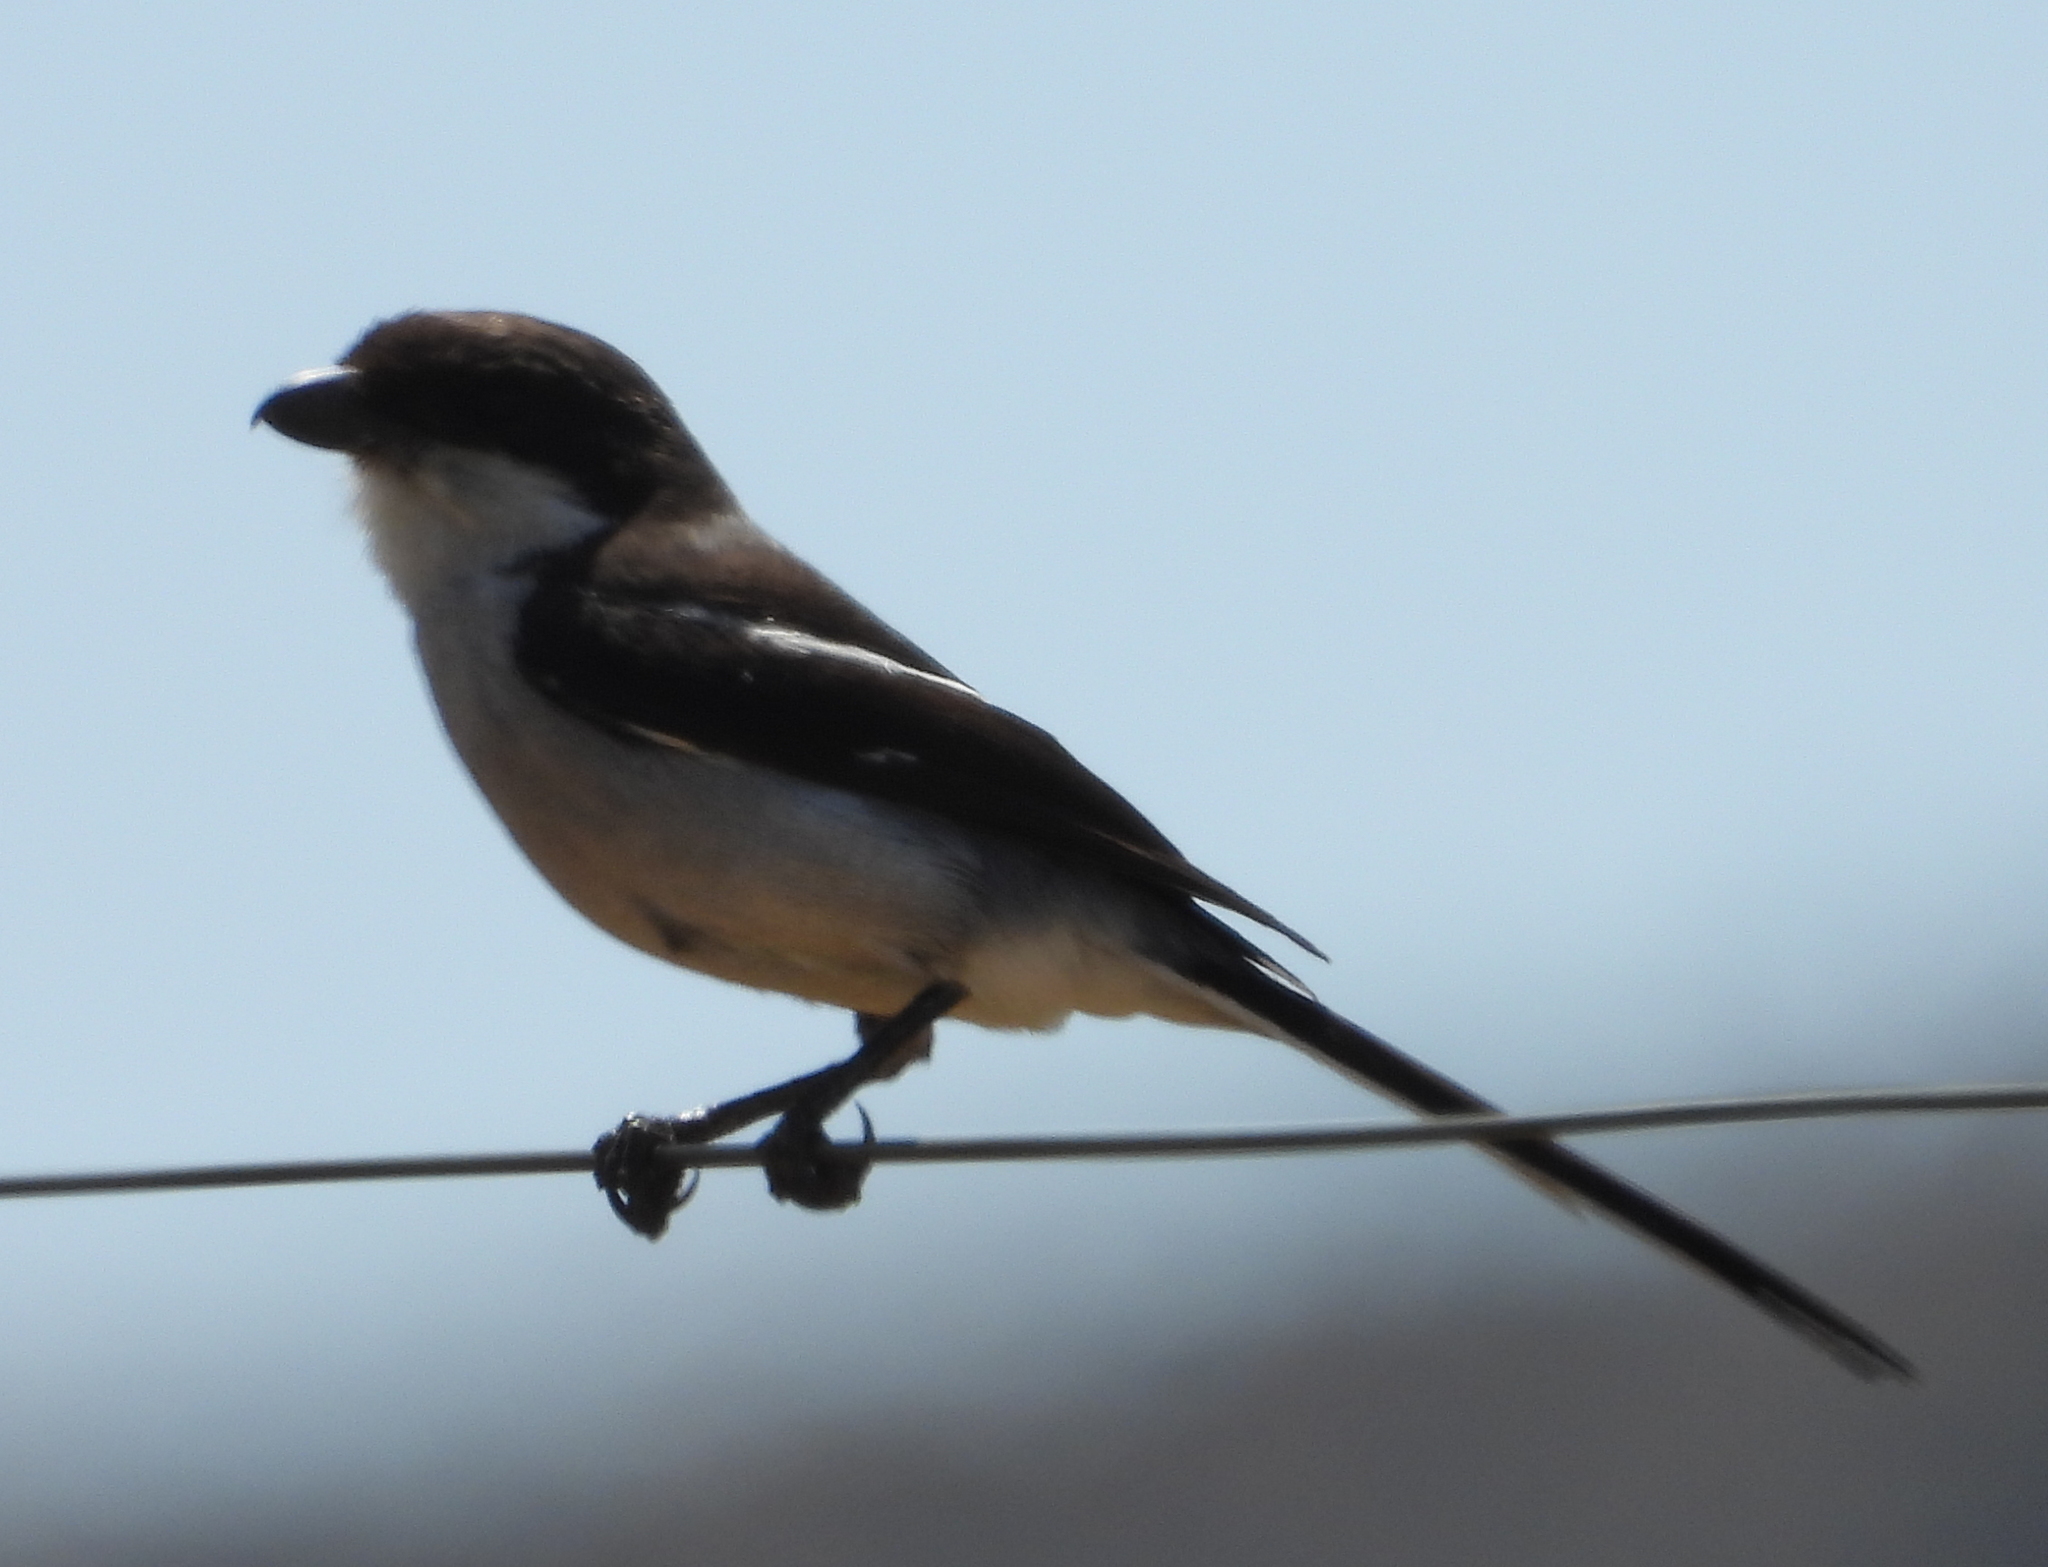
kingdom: Animalia
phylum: Chordata
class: Aves
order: Passeriformes
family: Laniidae
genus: Lanius
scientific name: Lanius collaris
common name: Southern fiscal
